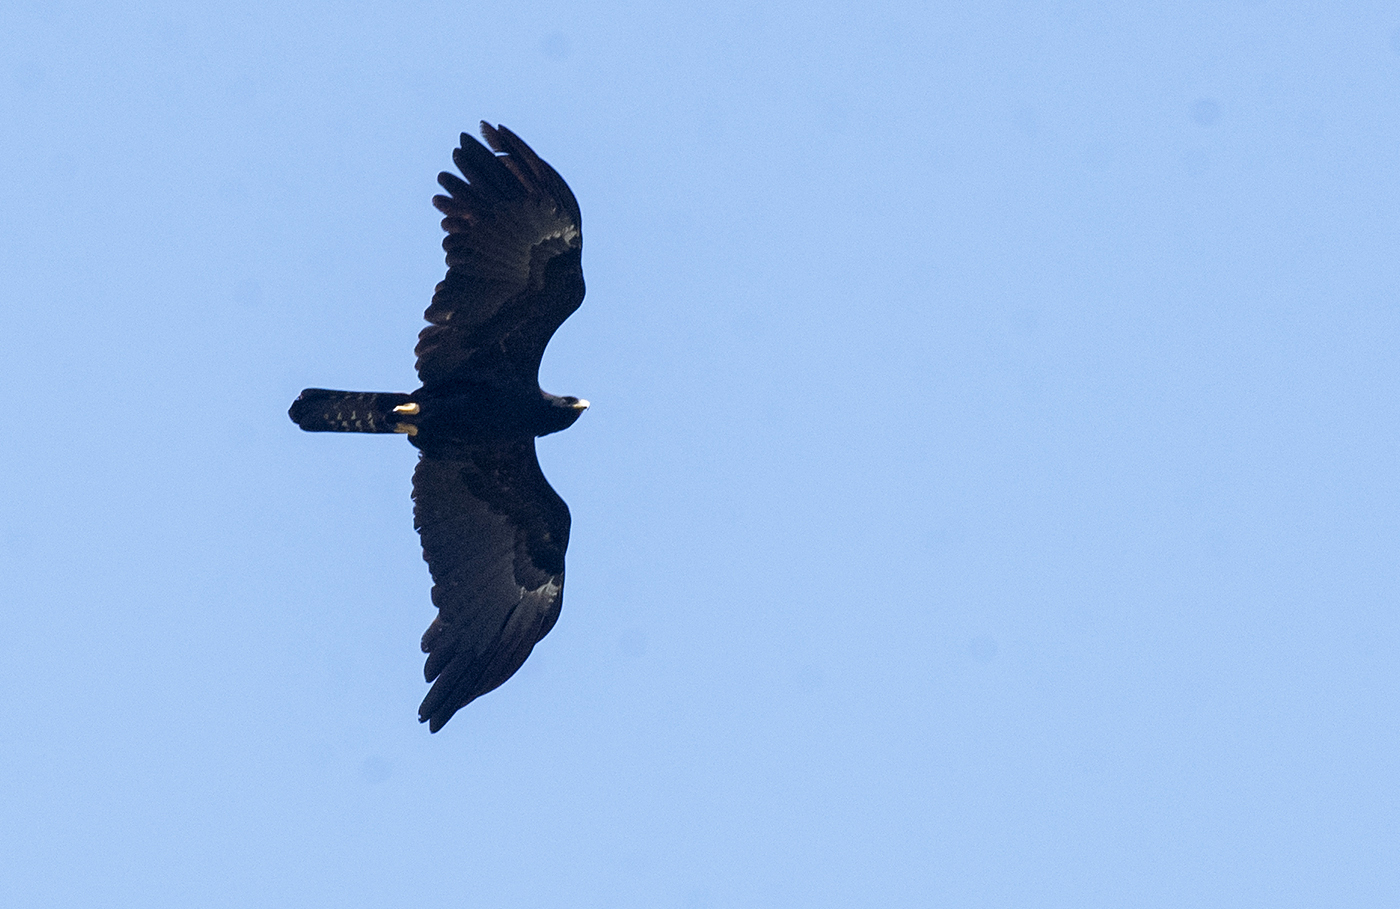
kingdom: Animalia
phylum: Chordata
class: Aves
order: Accipitriformes
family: Accipitridae
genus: Ictinaetus
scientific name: Ictinaetus malayensis
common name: Black eagle
